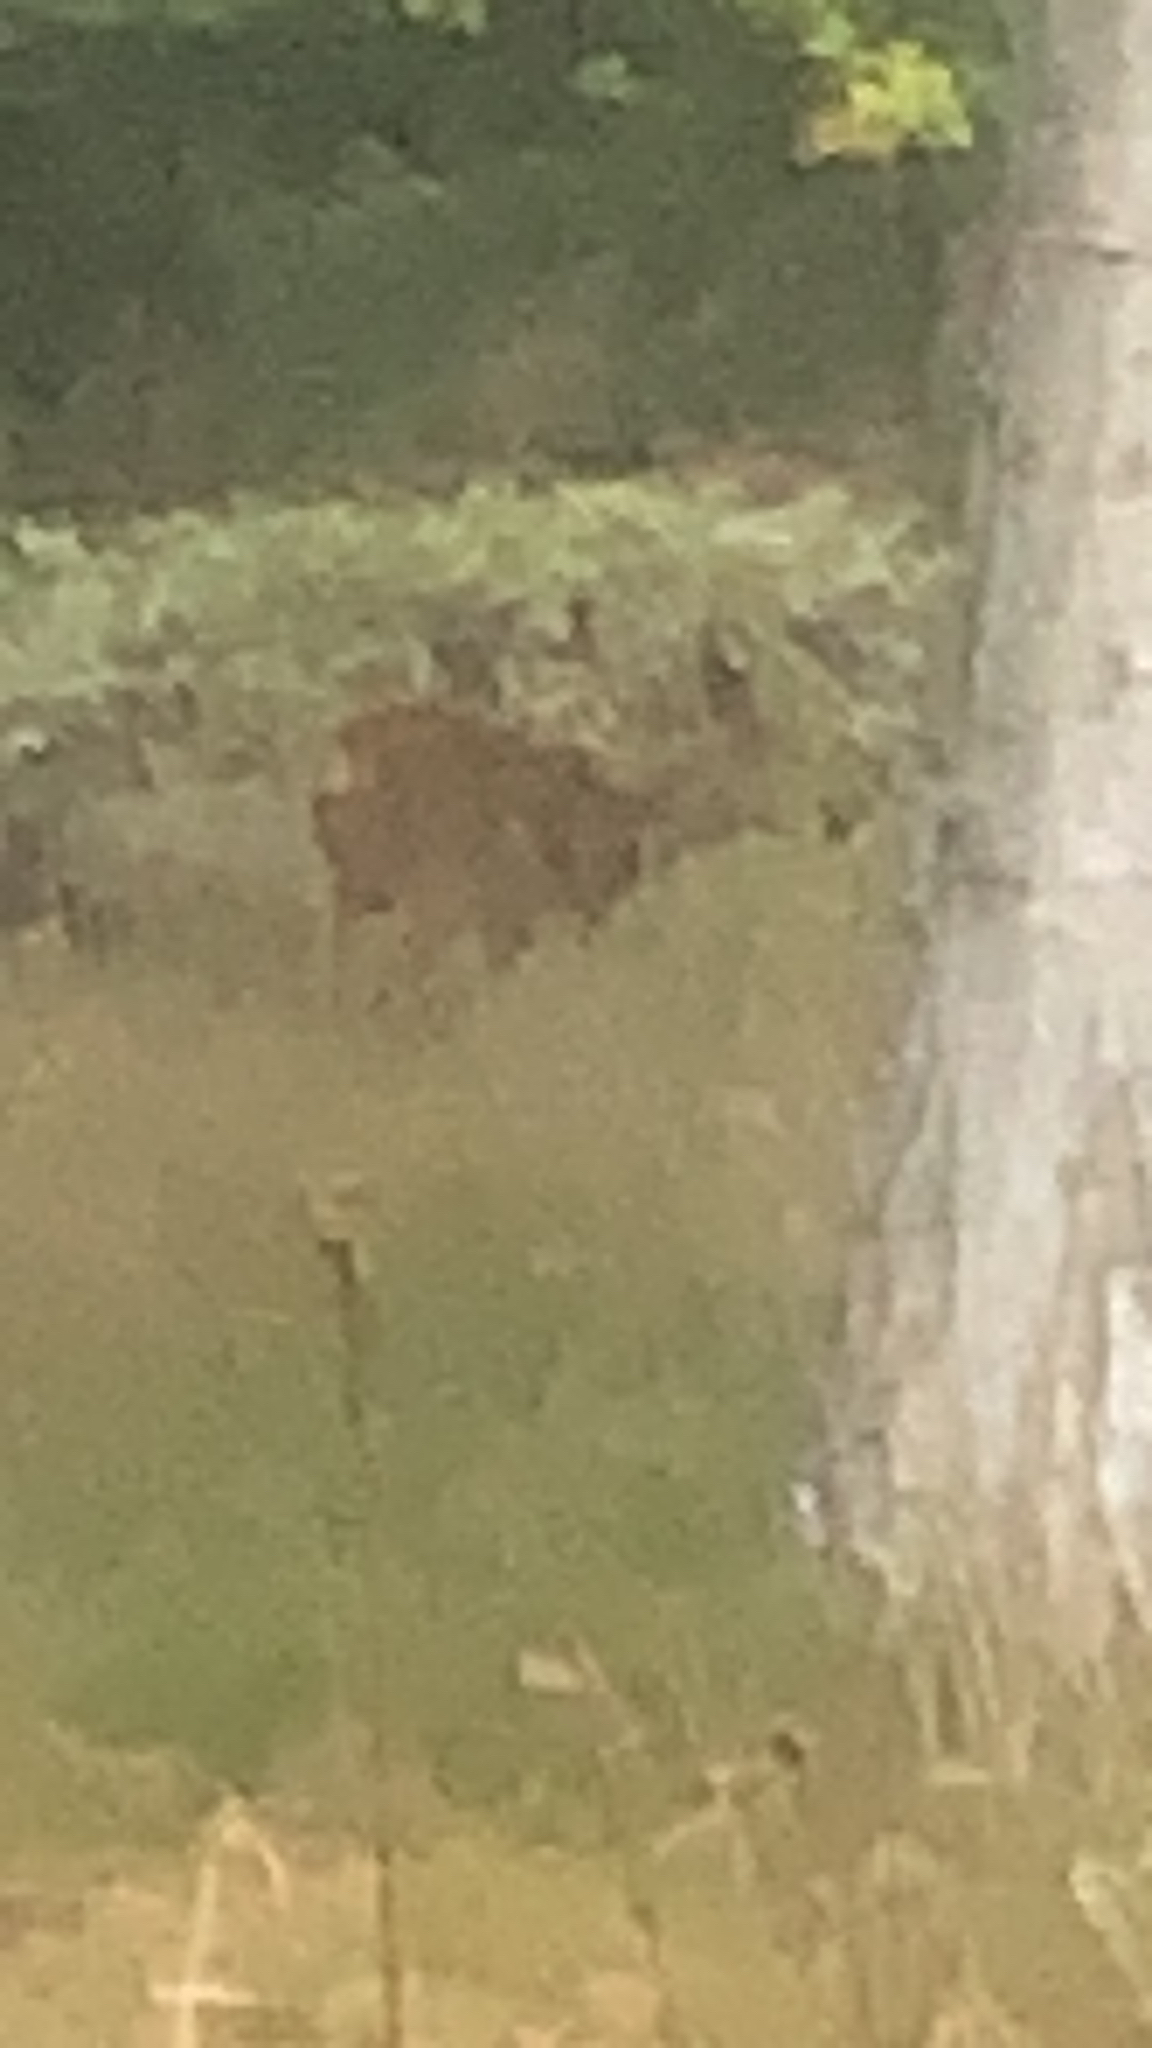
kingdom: Animalia
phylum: Chordata
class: Mammalia
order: Artiodactyla
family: Cervidae
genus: Capreolus
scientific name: Capreolus capreolus
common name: Western roe deer
